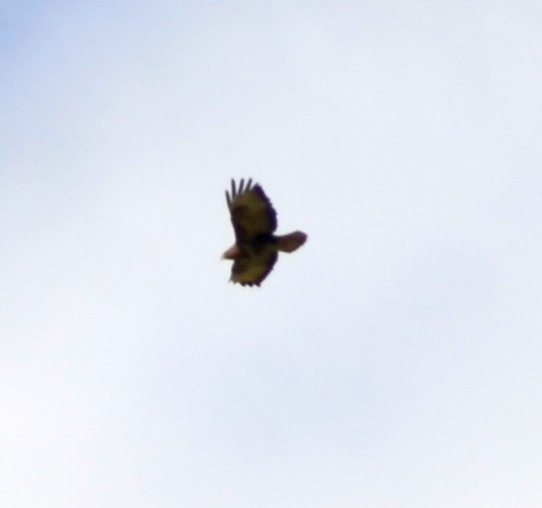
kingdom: Animalia
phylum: Chordata
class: Aves
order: Accipitriformes
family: Accipitridae
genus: Buteo
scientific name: Buteo buteo
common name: Common buzzard
